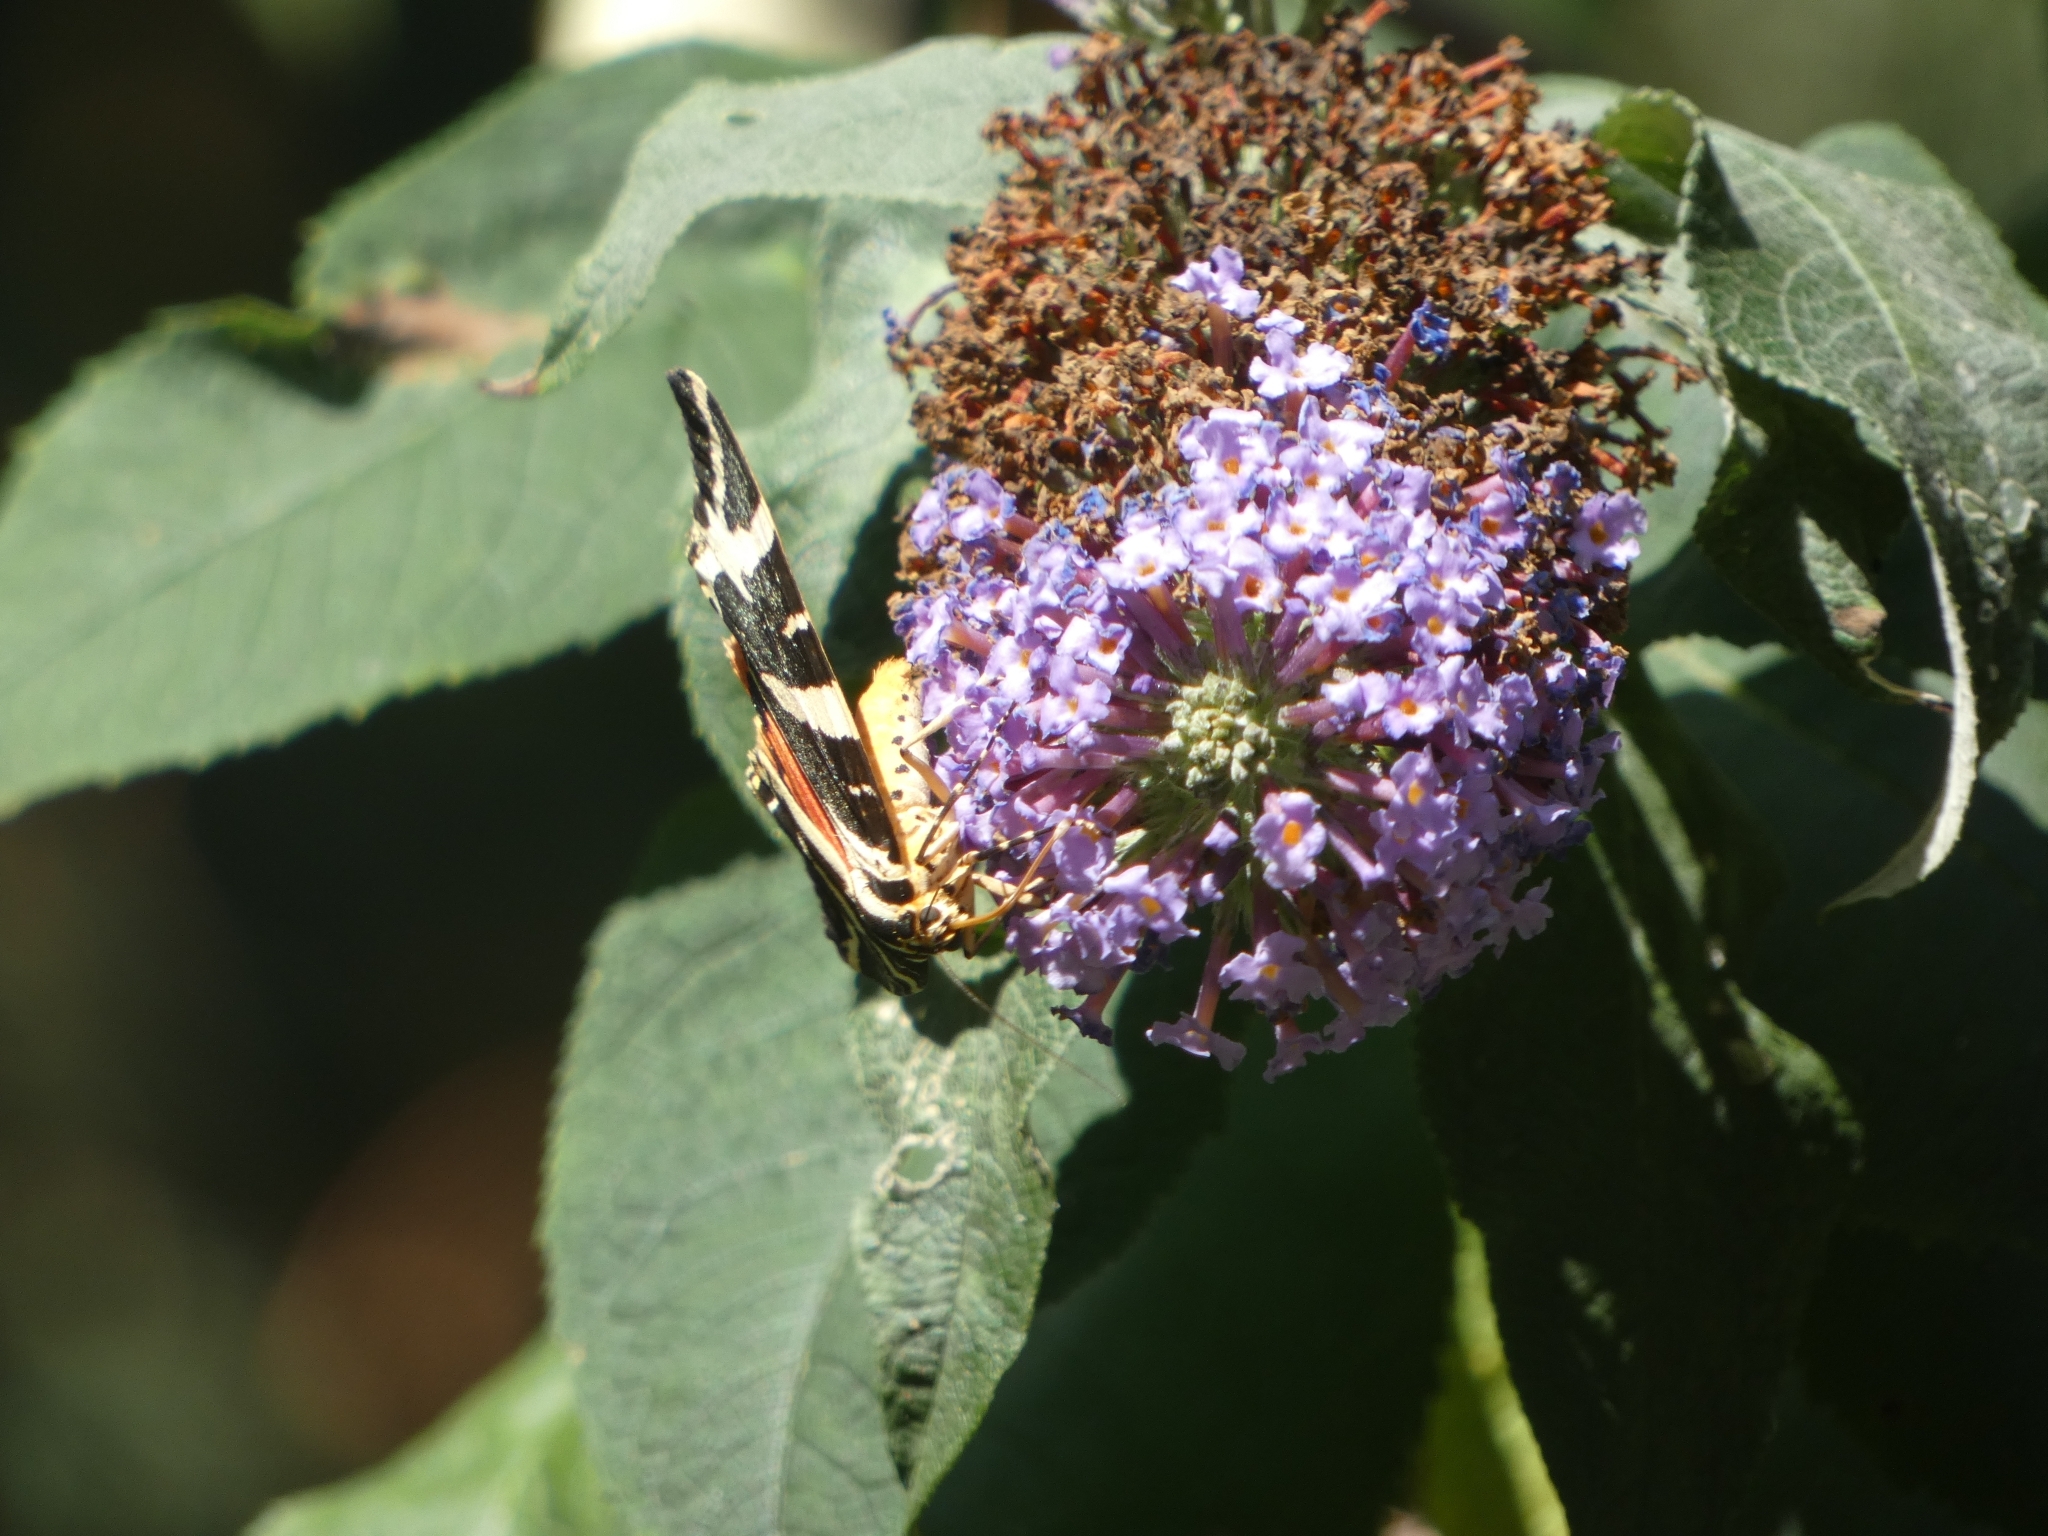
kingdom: Animalia
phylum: Arthropoda
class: Insecta
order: Lepidoptera
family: Erebidae
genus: Euplagia
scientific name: Euplagia quadripunctaria
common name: Jersey tiger
